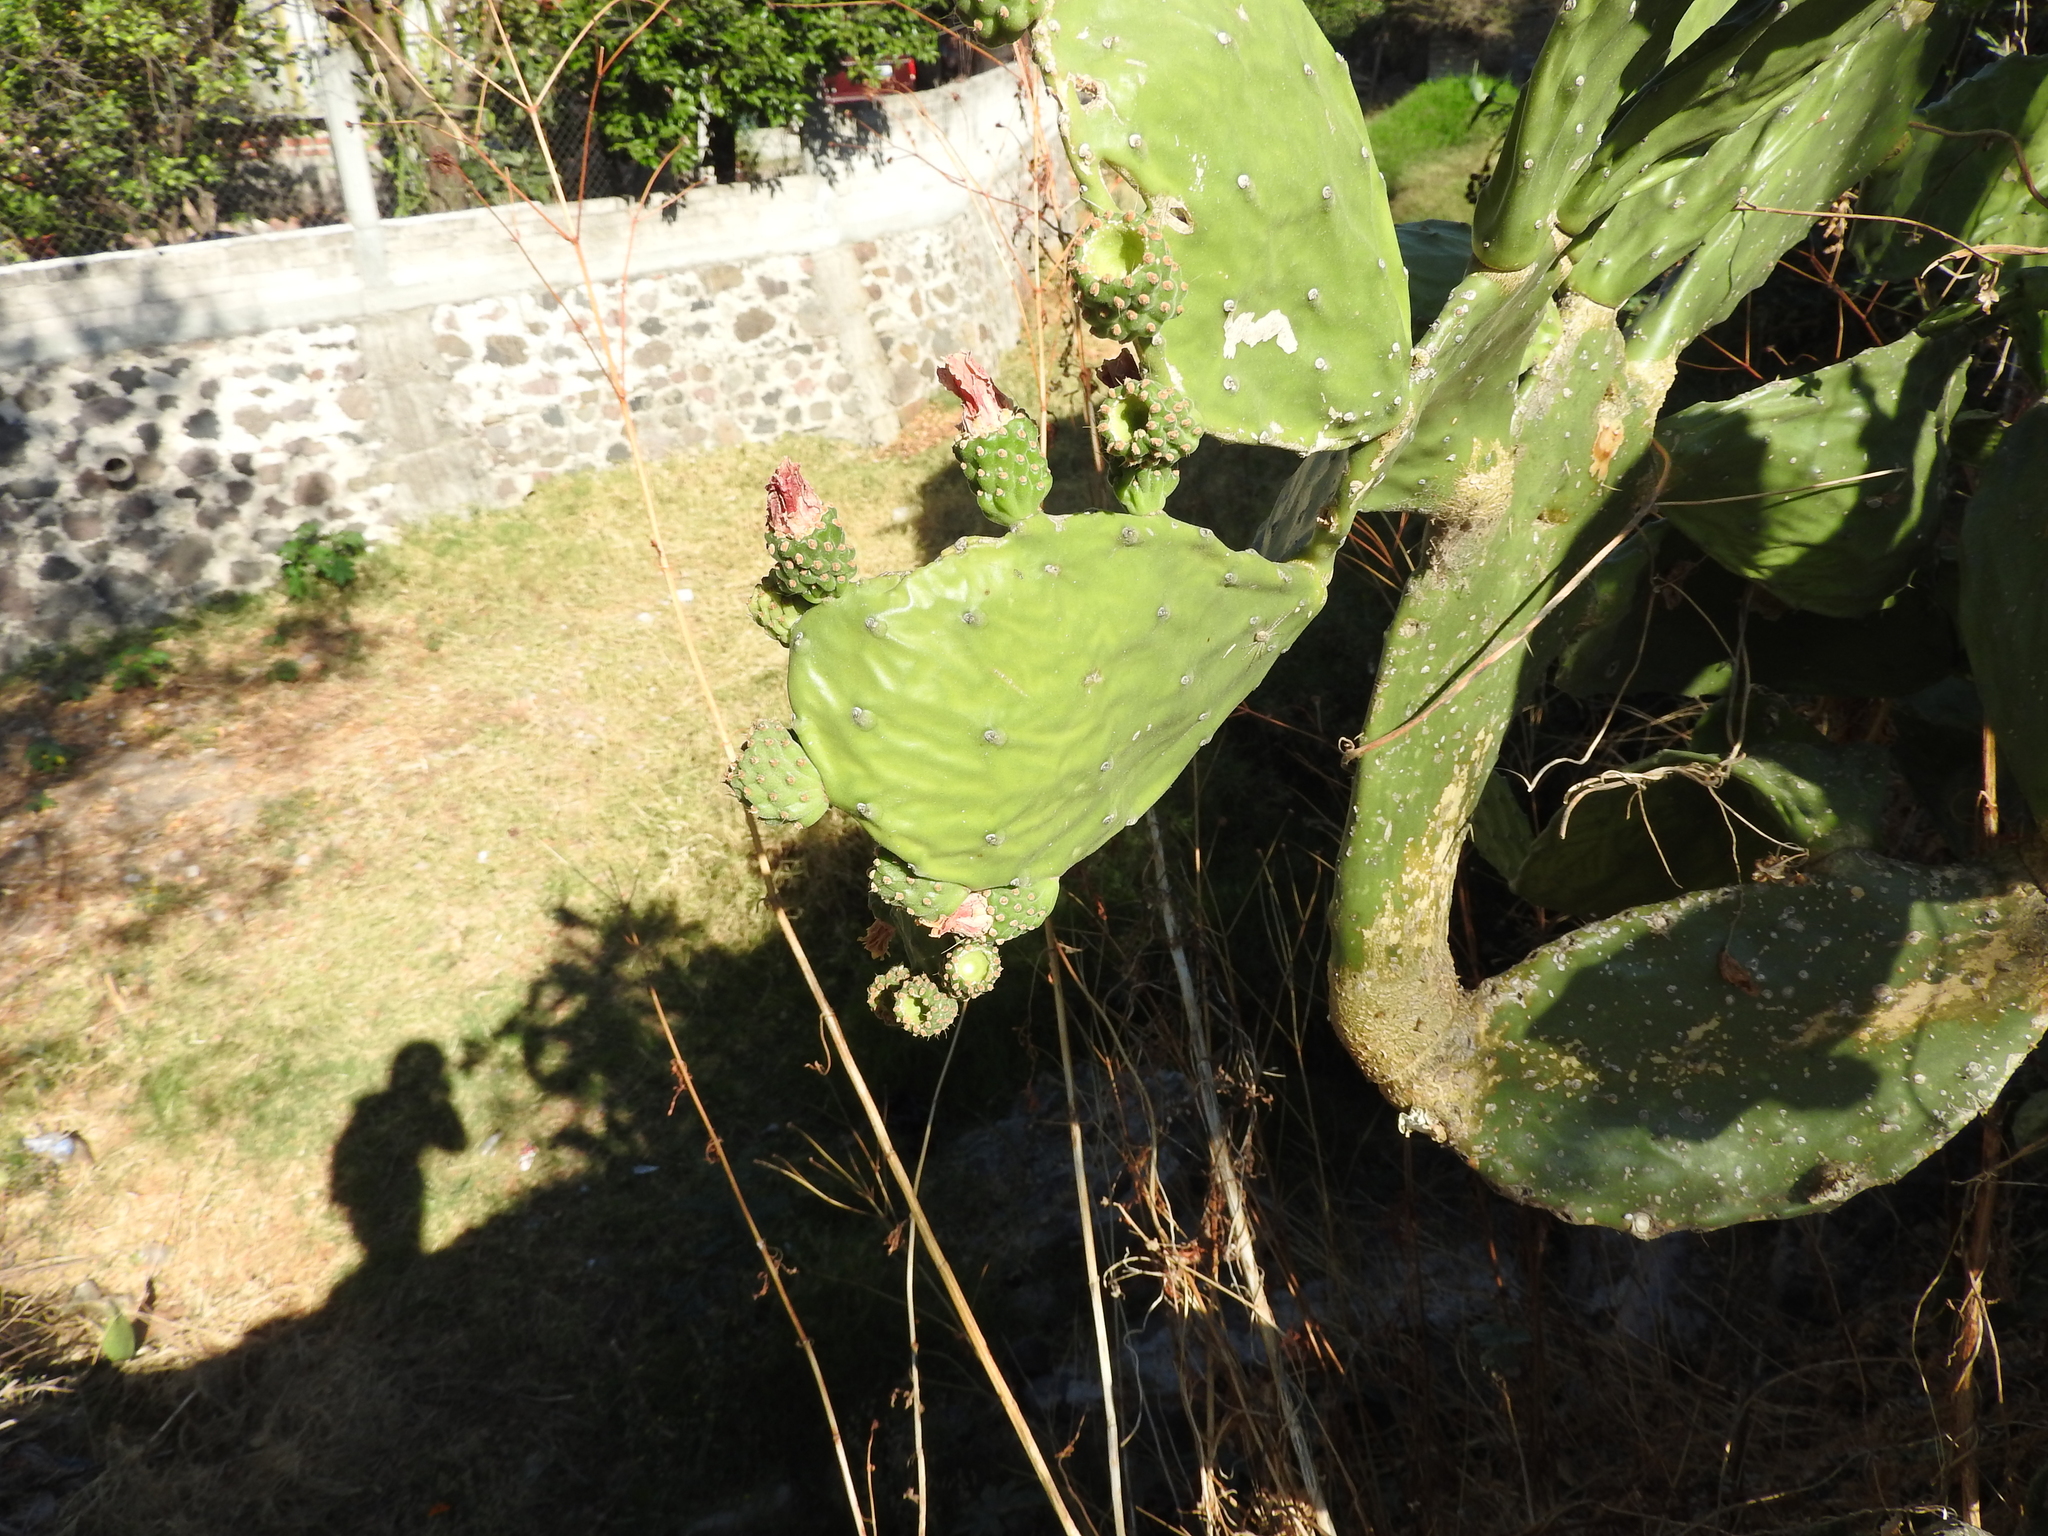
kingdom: Plantae
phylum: Tracheophyta
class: Magnoliopsida
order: Caryophyllales
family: Cactaceae
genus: Opuntia
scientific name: Opuntia cochenillifera
